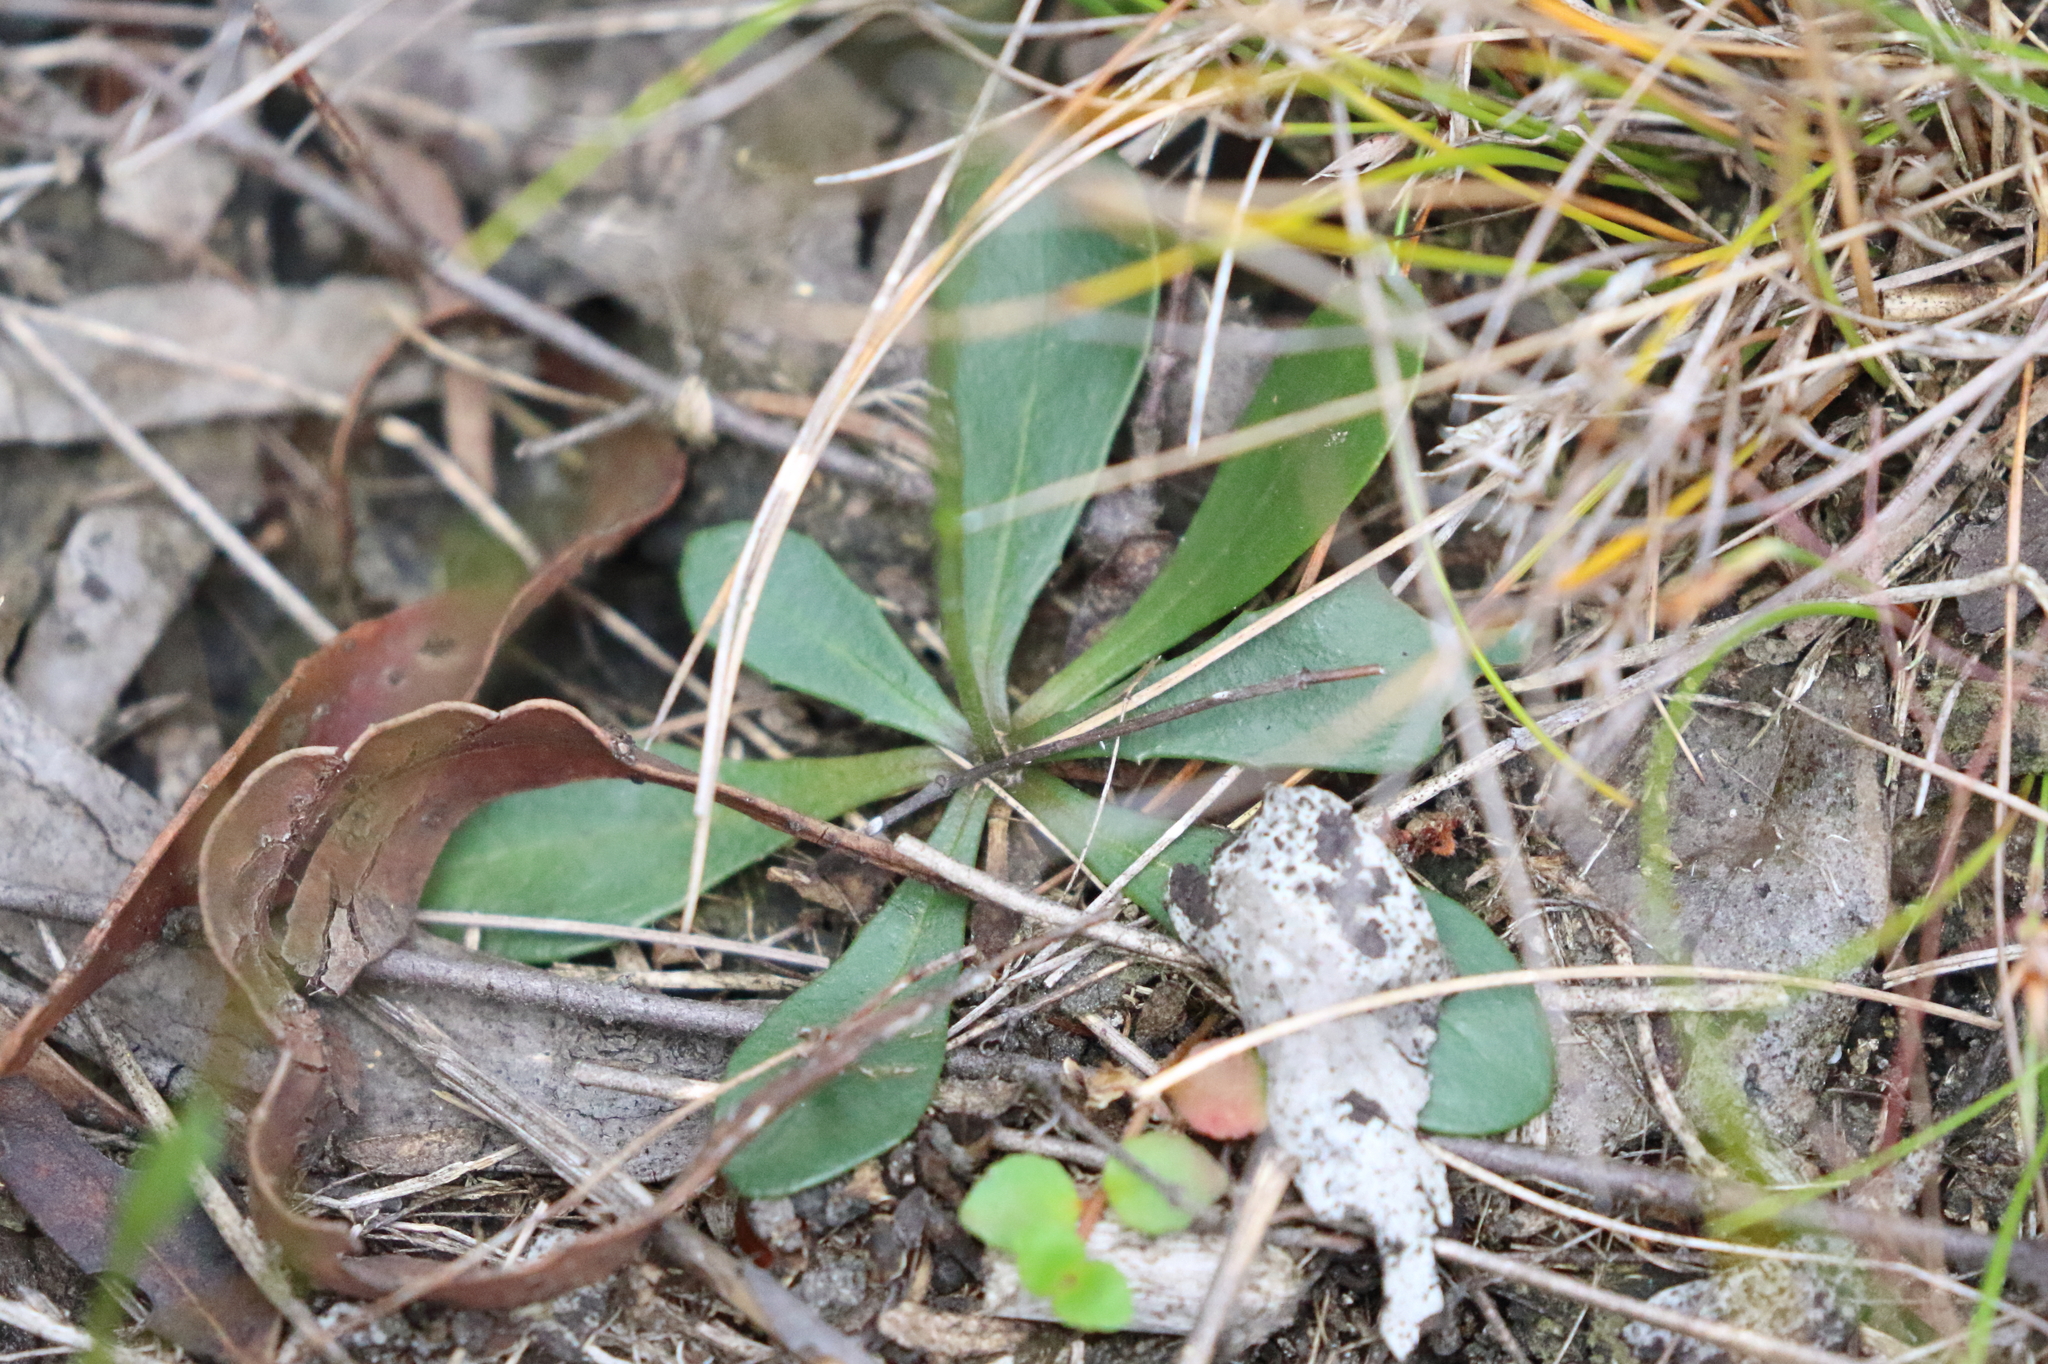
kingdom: Plantae
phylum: Tracheophyta
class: Magnoliopsida
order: Asterales
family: Goodeniaceae
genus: Goodenia
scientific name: Goodenia paradoxa
